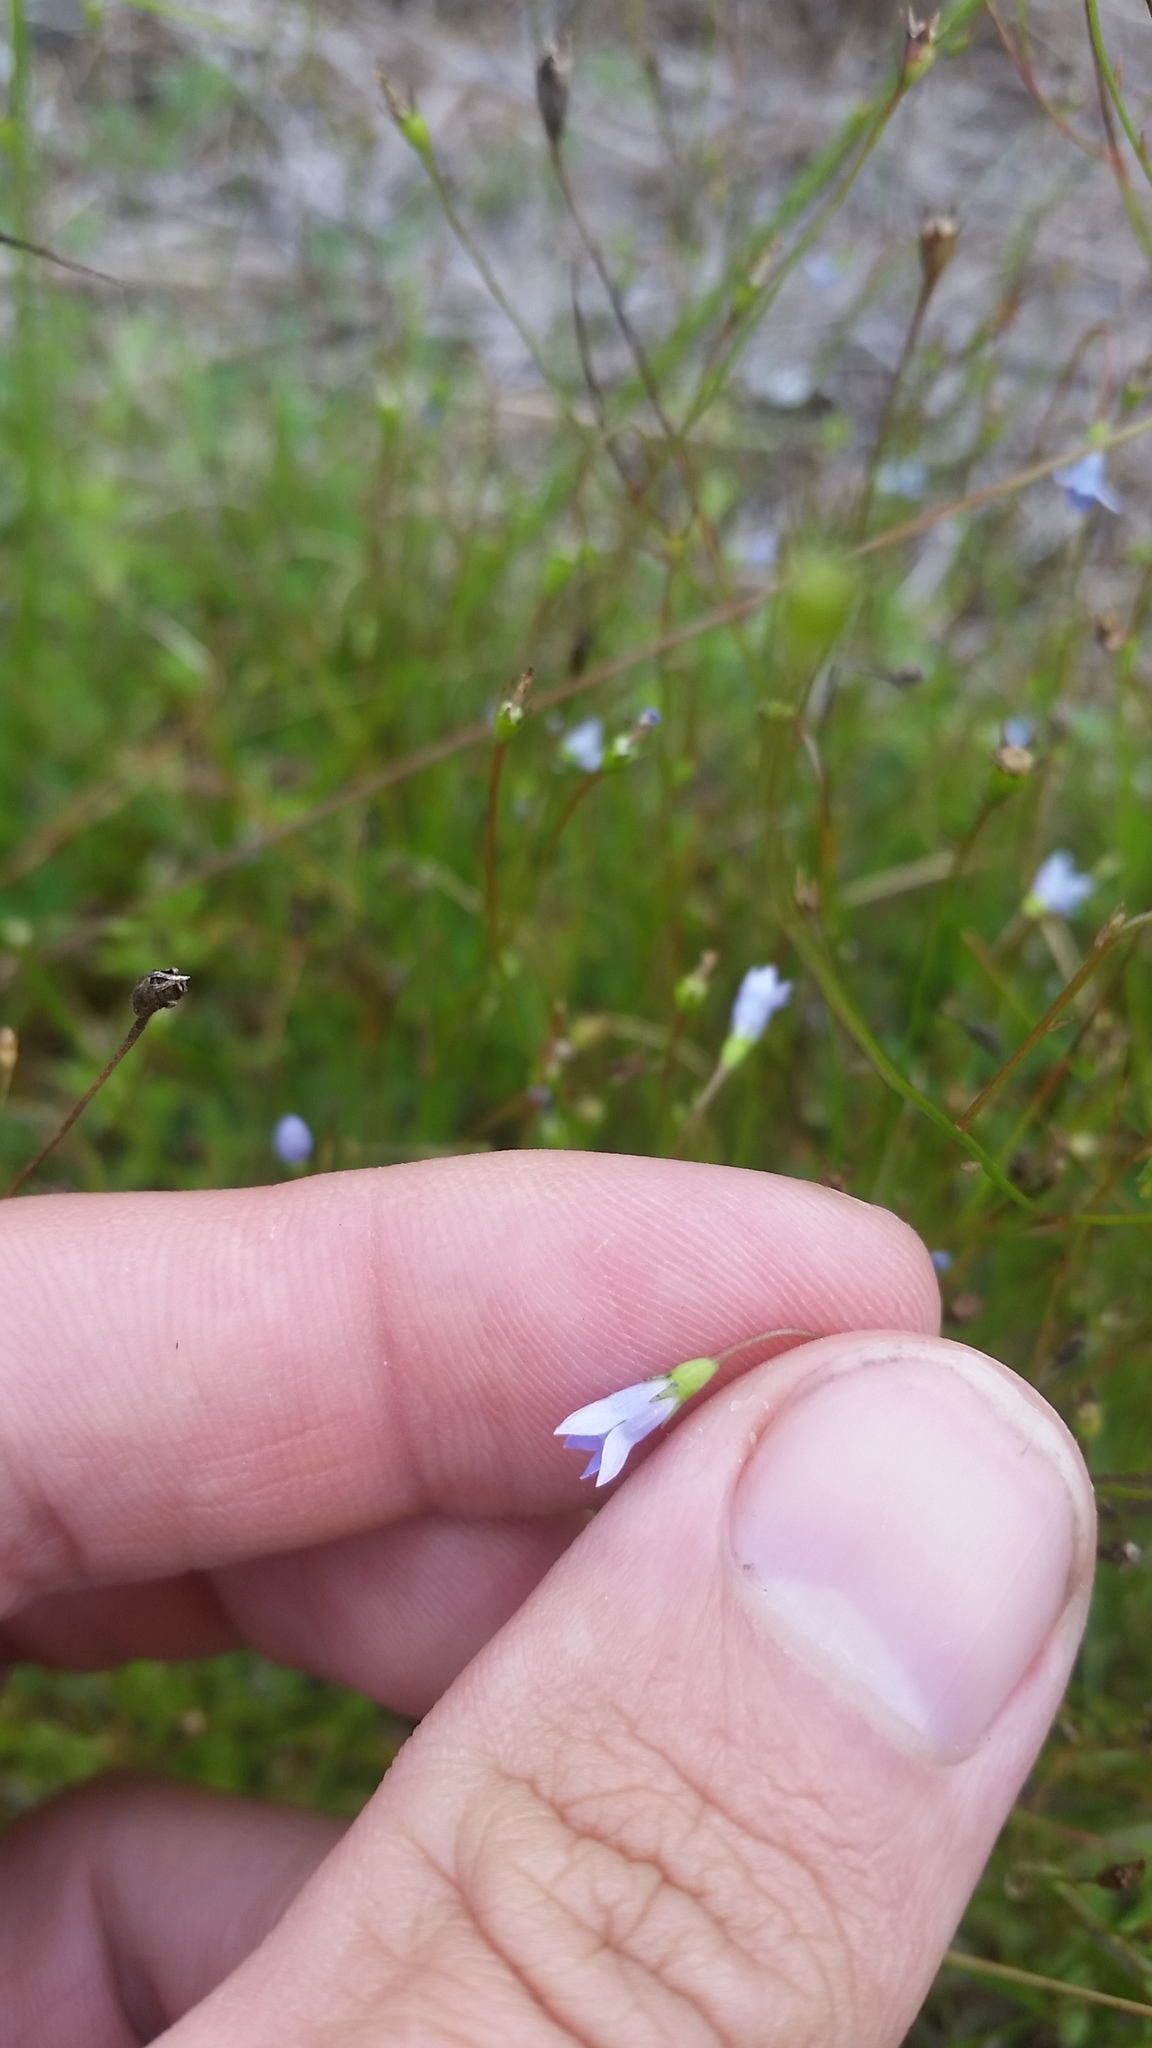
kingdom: Plantae
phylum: Tracheophyta
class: Magnoliopsida
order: Asterales
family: Campanulaceae
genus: Wahlenbergia
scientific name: Wahlenbergia gracilis
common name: Harebell
